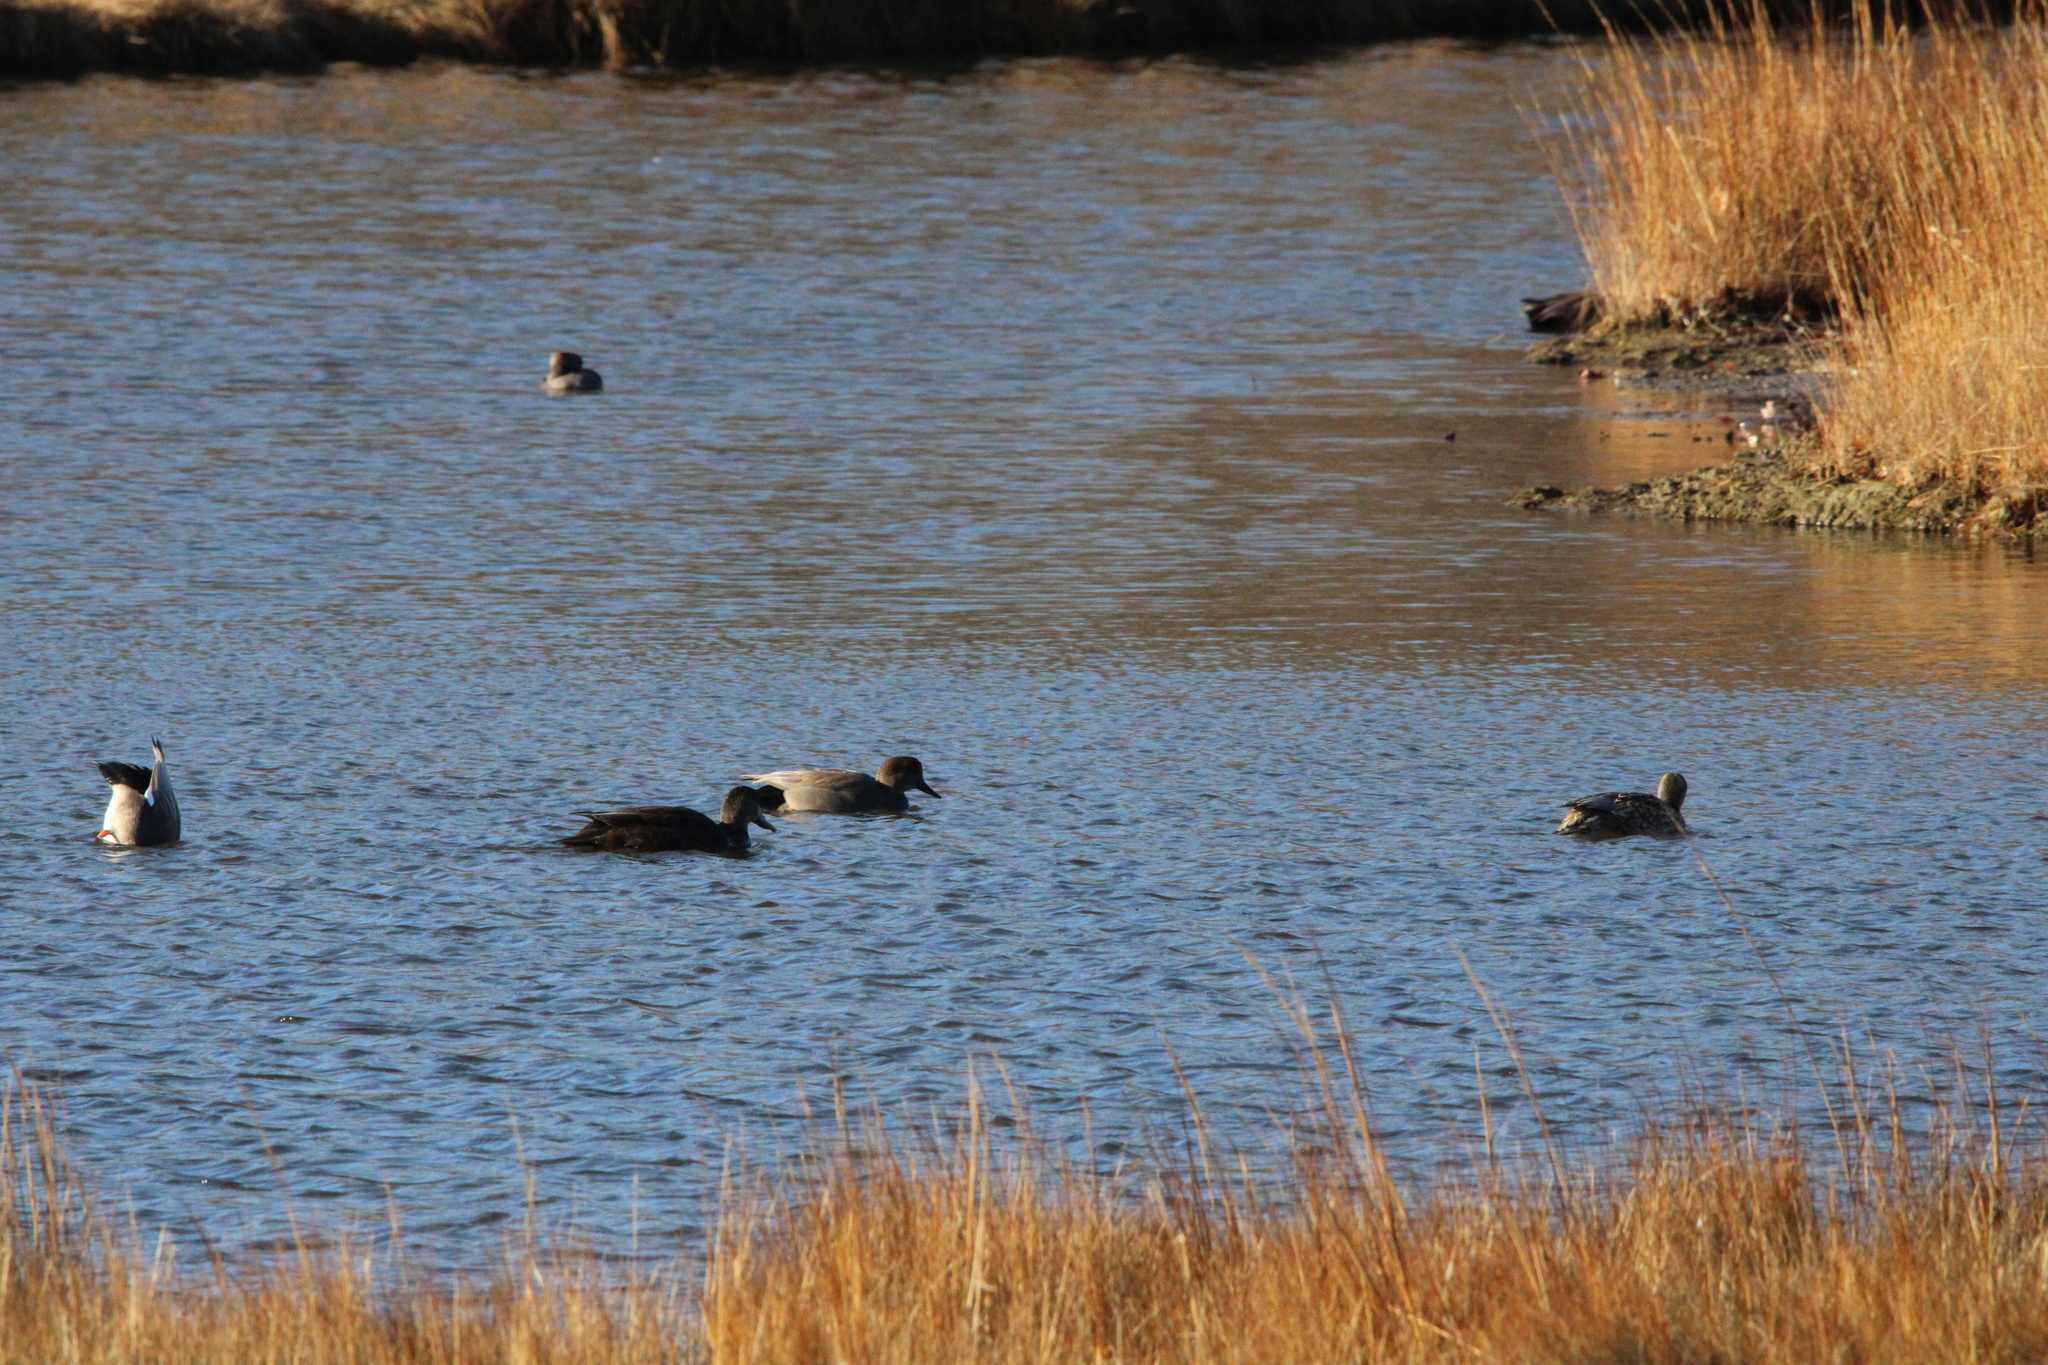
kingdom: Animalia
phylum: Chordata
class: Aves
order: Anseriformes
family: Anatidae
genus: Mareca
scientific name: Mareca strepera
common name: Gadwall
